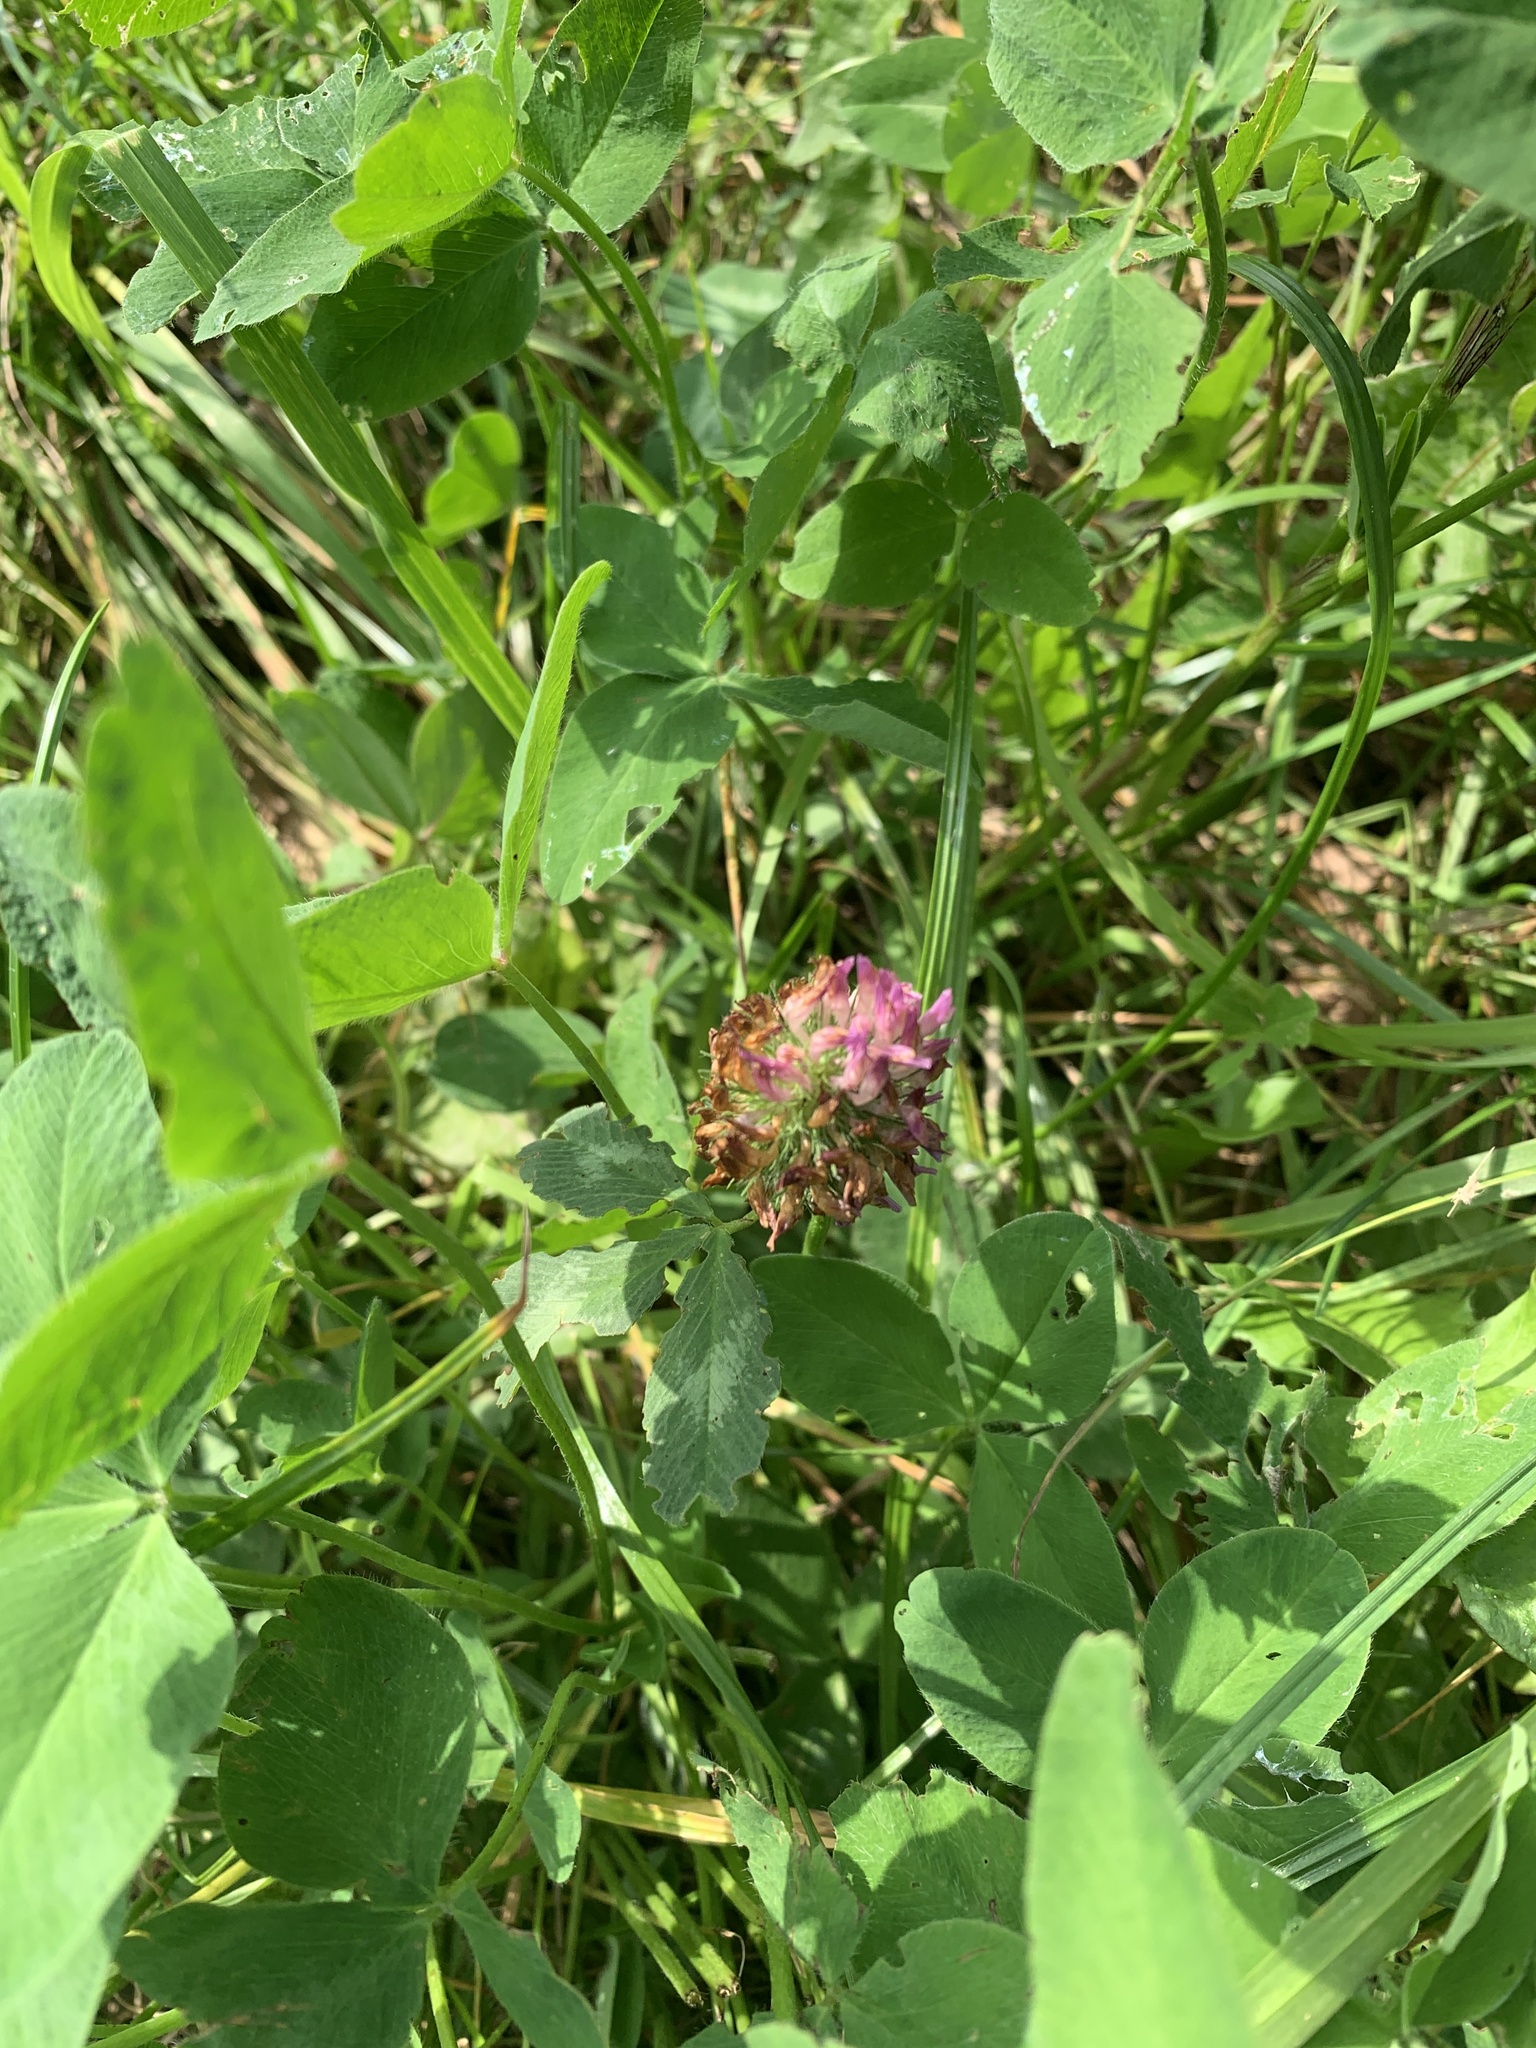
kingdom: Plantae
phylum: Tracheophyta
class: Magnoliopsida
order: Fabales
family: Fabaceae
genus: Trifolium
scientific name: Trifolium pratense
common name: Red clover
